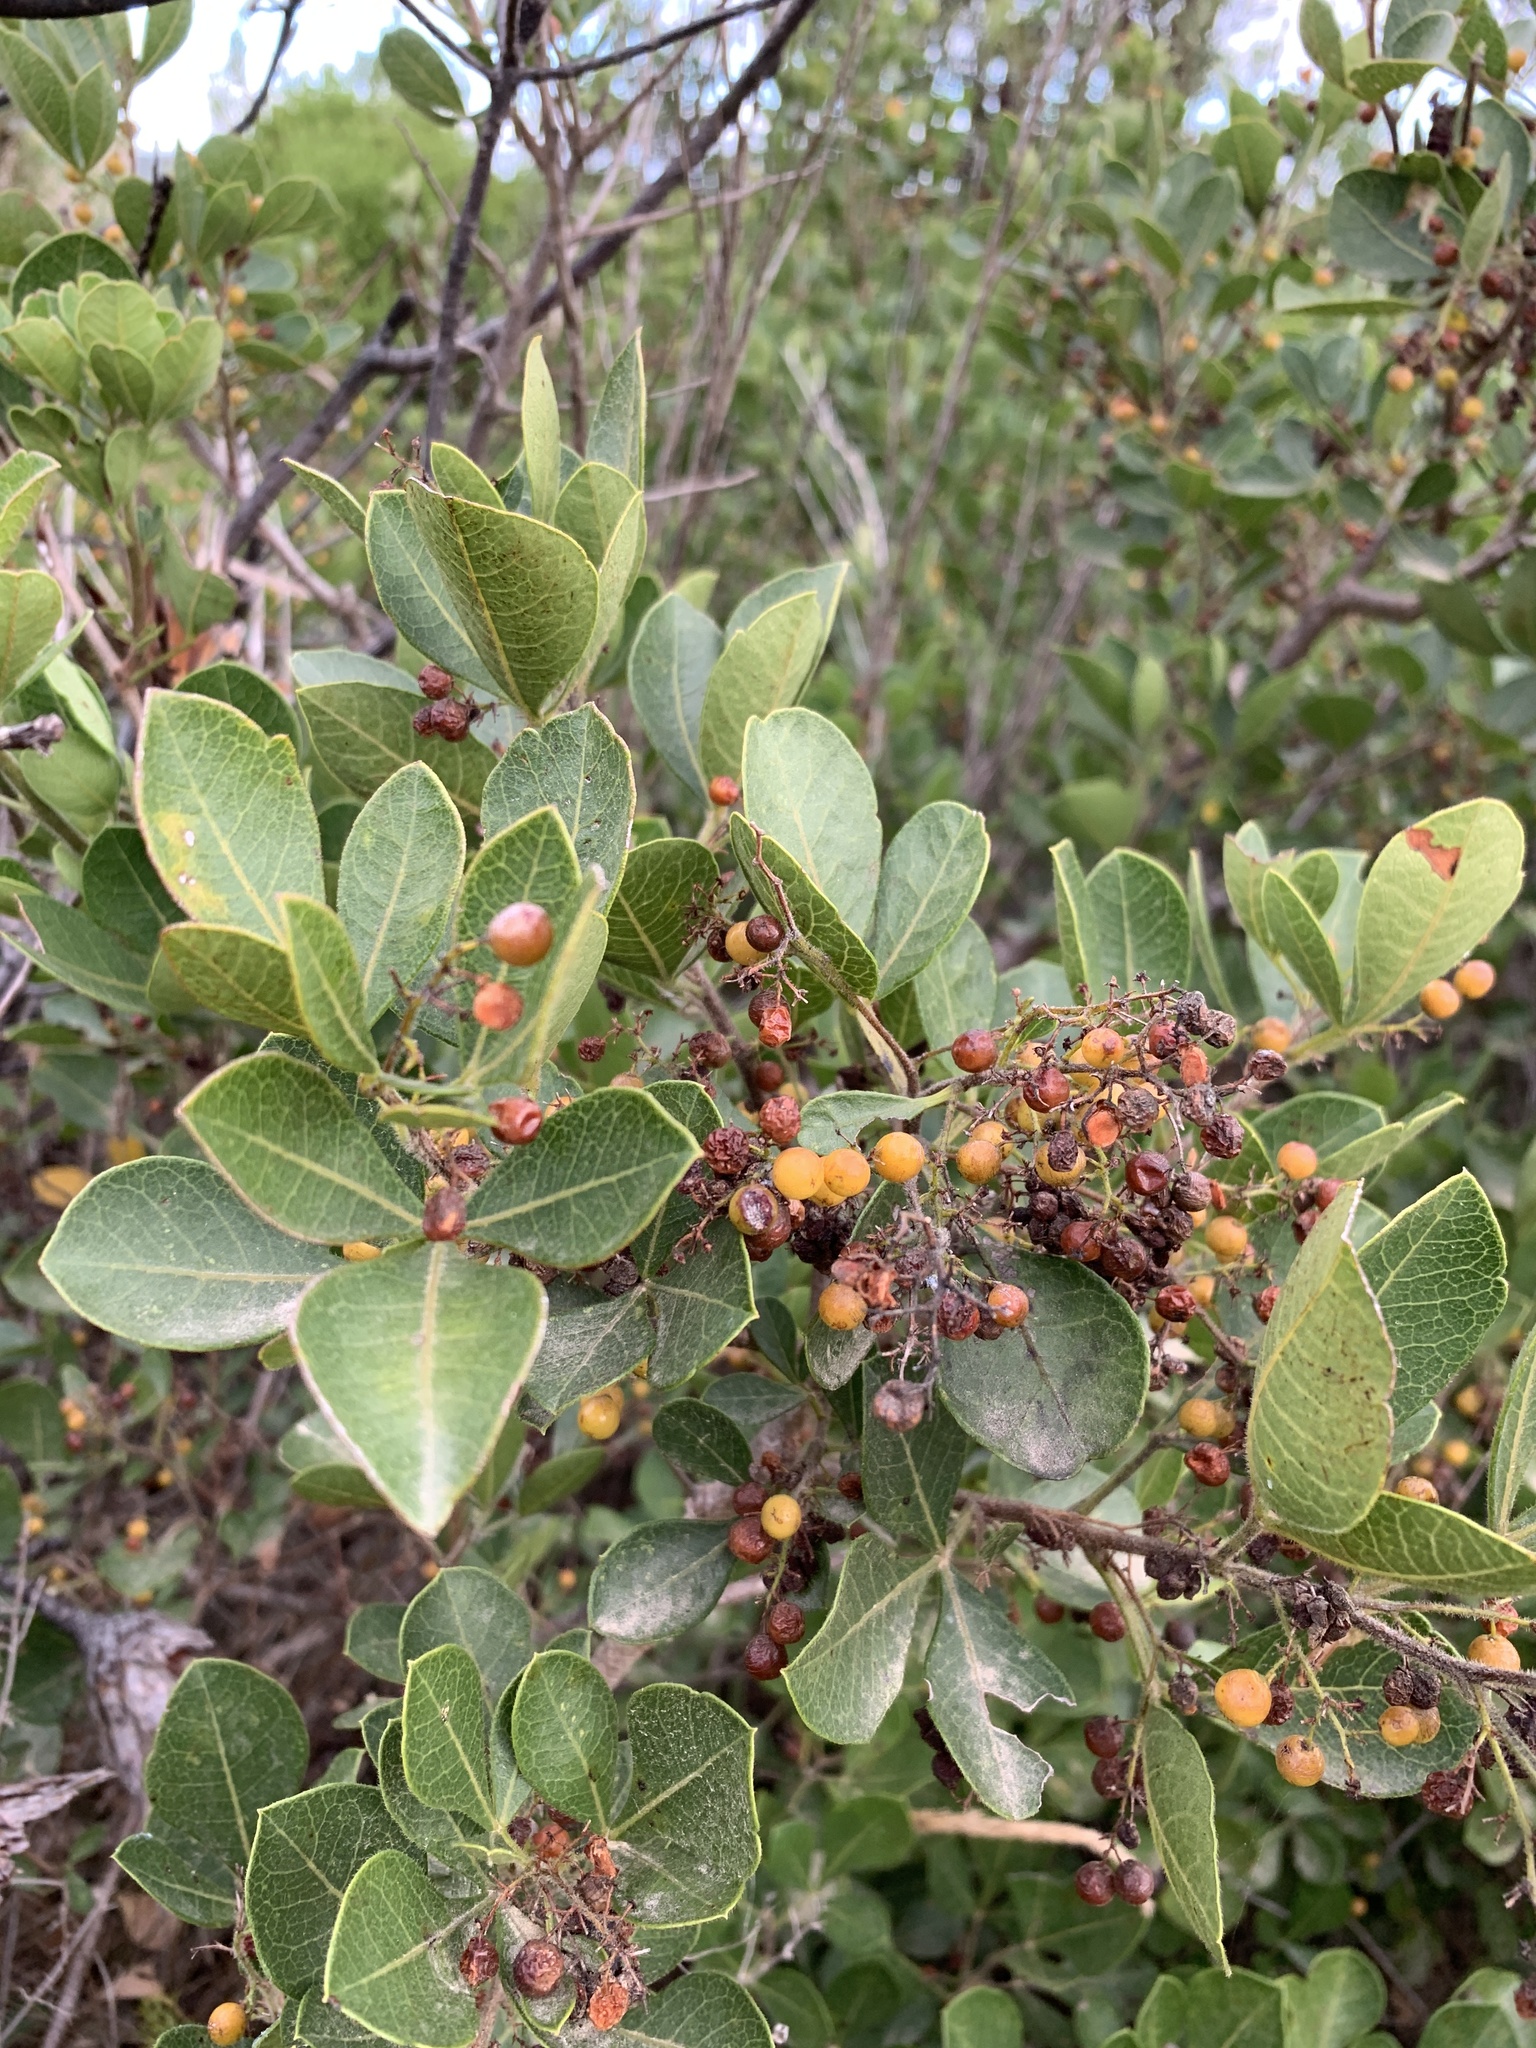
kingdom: Plantae
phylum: Tracheophyta
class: Magnoliopsida
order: Sapindales
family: Anacardiaceae
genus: Searsia
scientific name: Searsia laevigata
